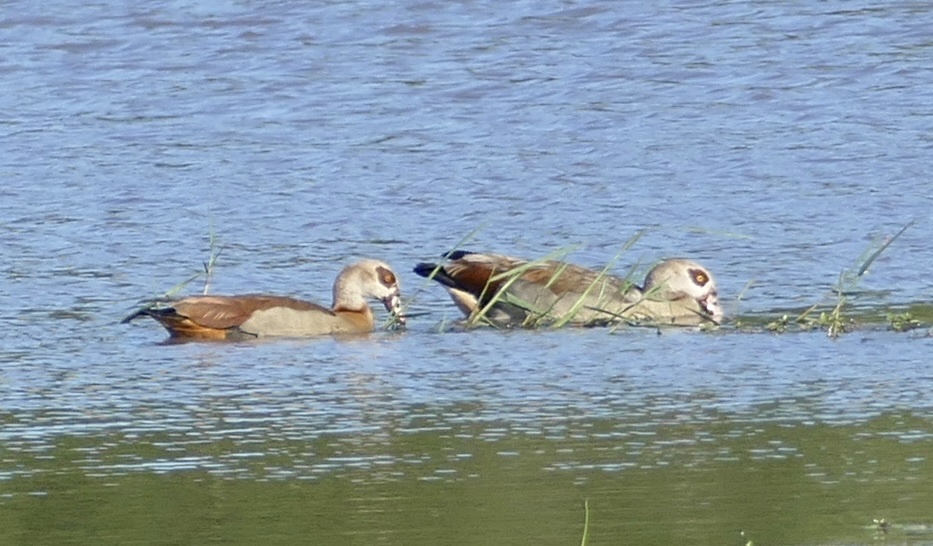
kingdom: Animalia
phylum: Chordata
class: Aves
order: Anseriformes
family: Anatidae
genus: Alopochen
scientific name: Alopochen aegyptiaca
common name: Egyptian goose
